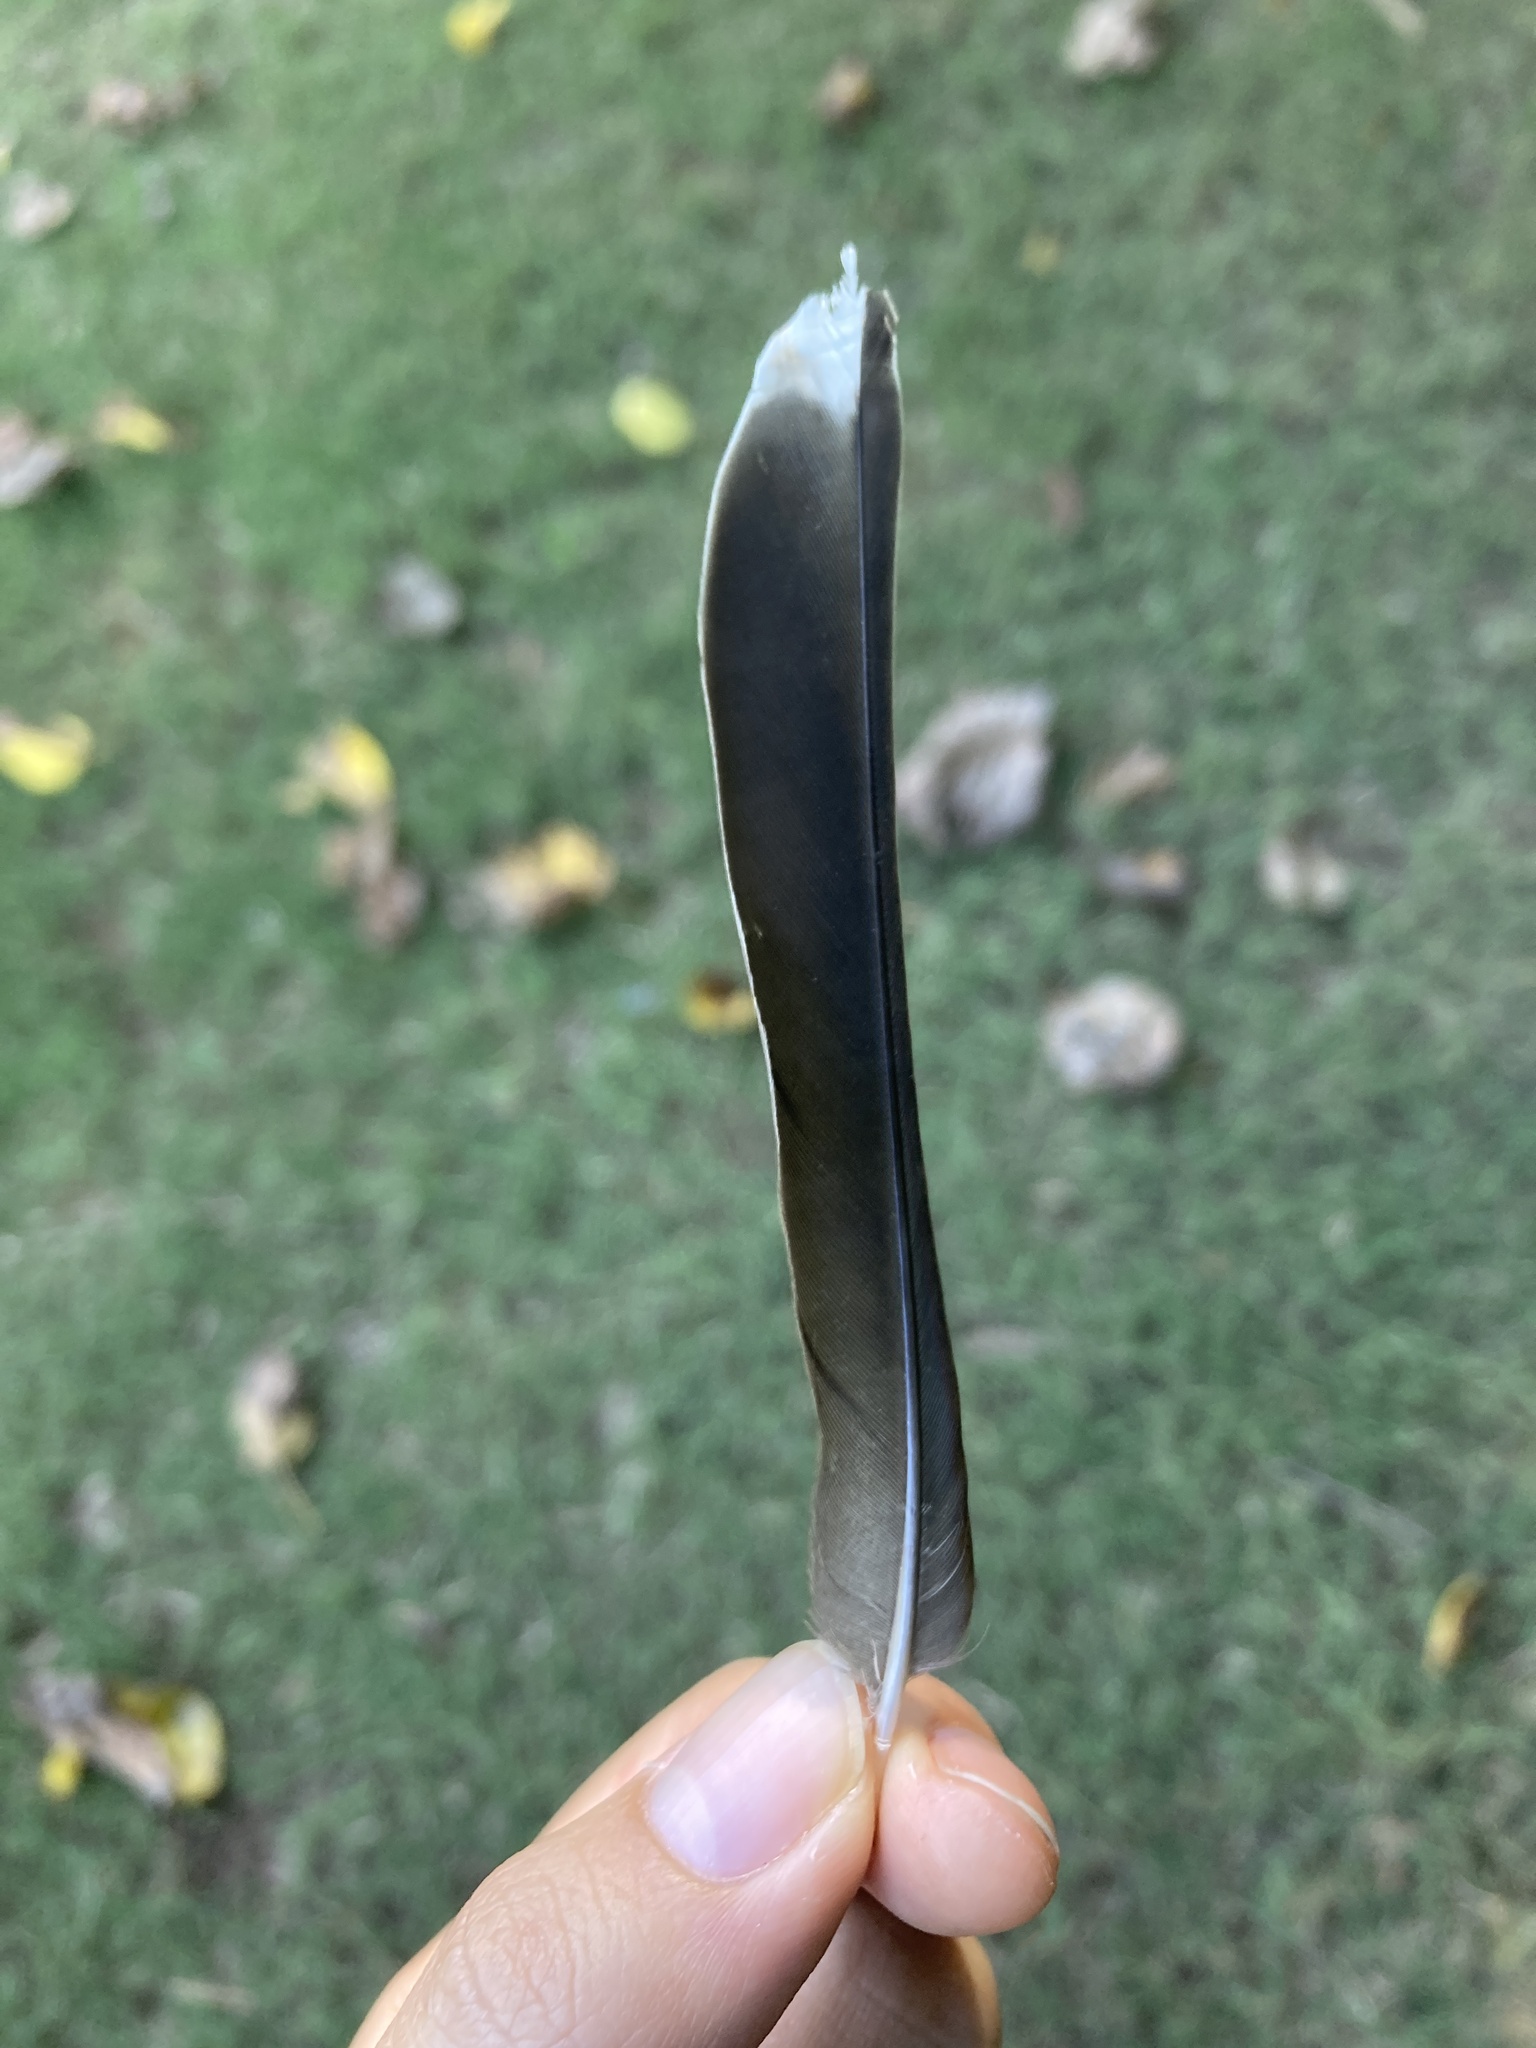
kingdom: Animalia
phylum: Chordata
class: Aves
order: Passeriformes
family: Turdidae
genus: Turdus
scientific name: Turdus migratorius
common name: American robin
